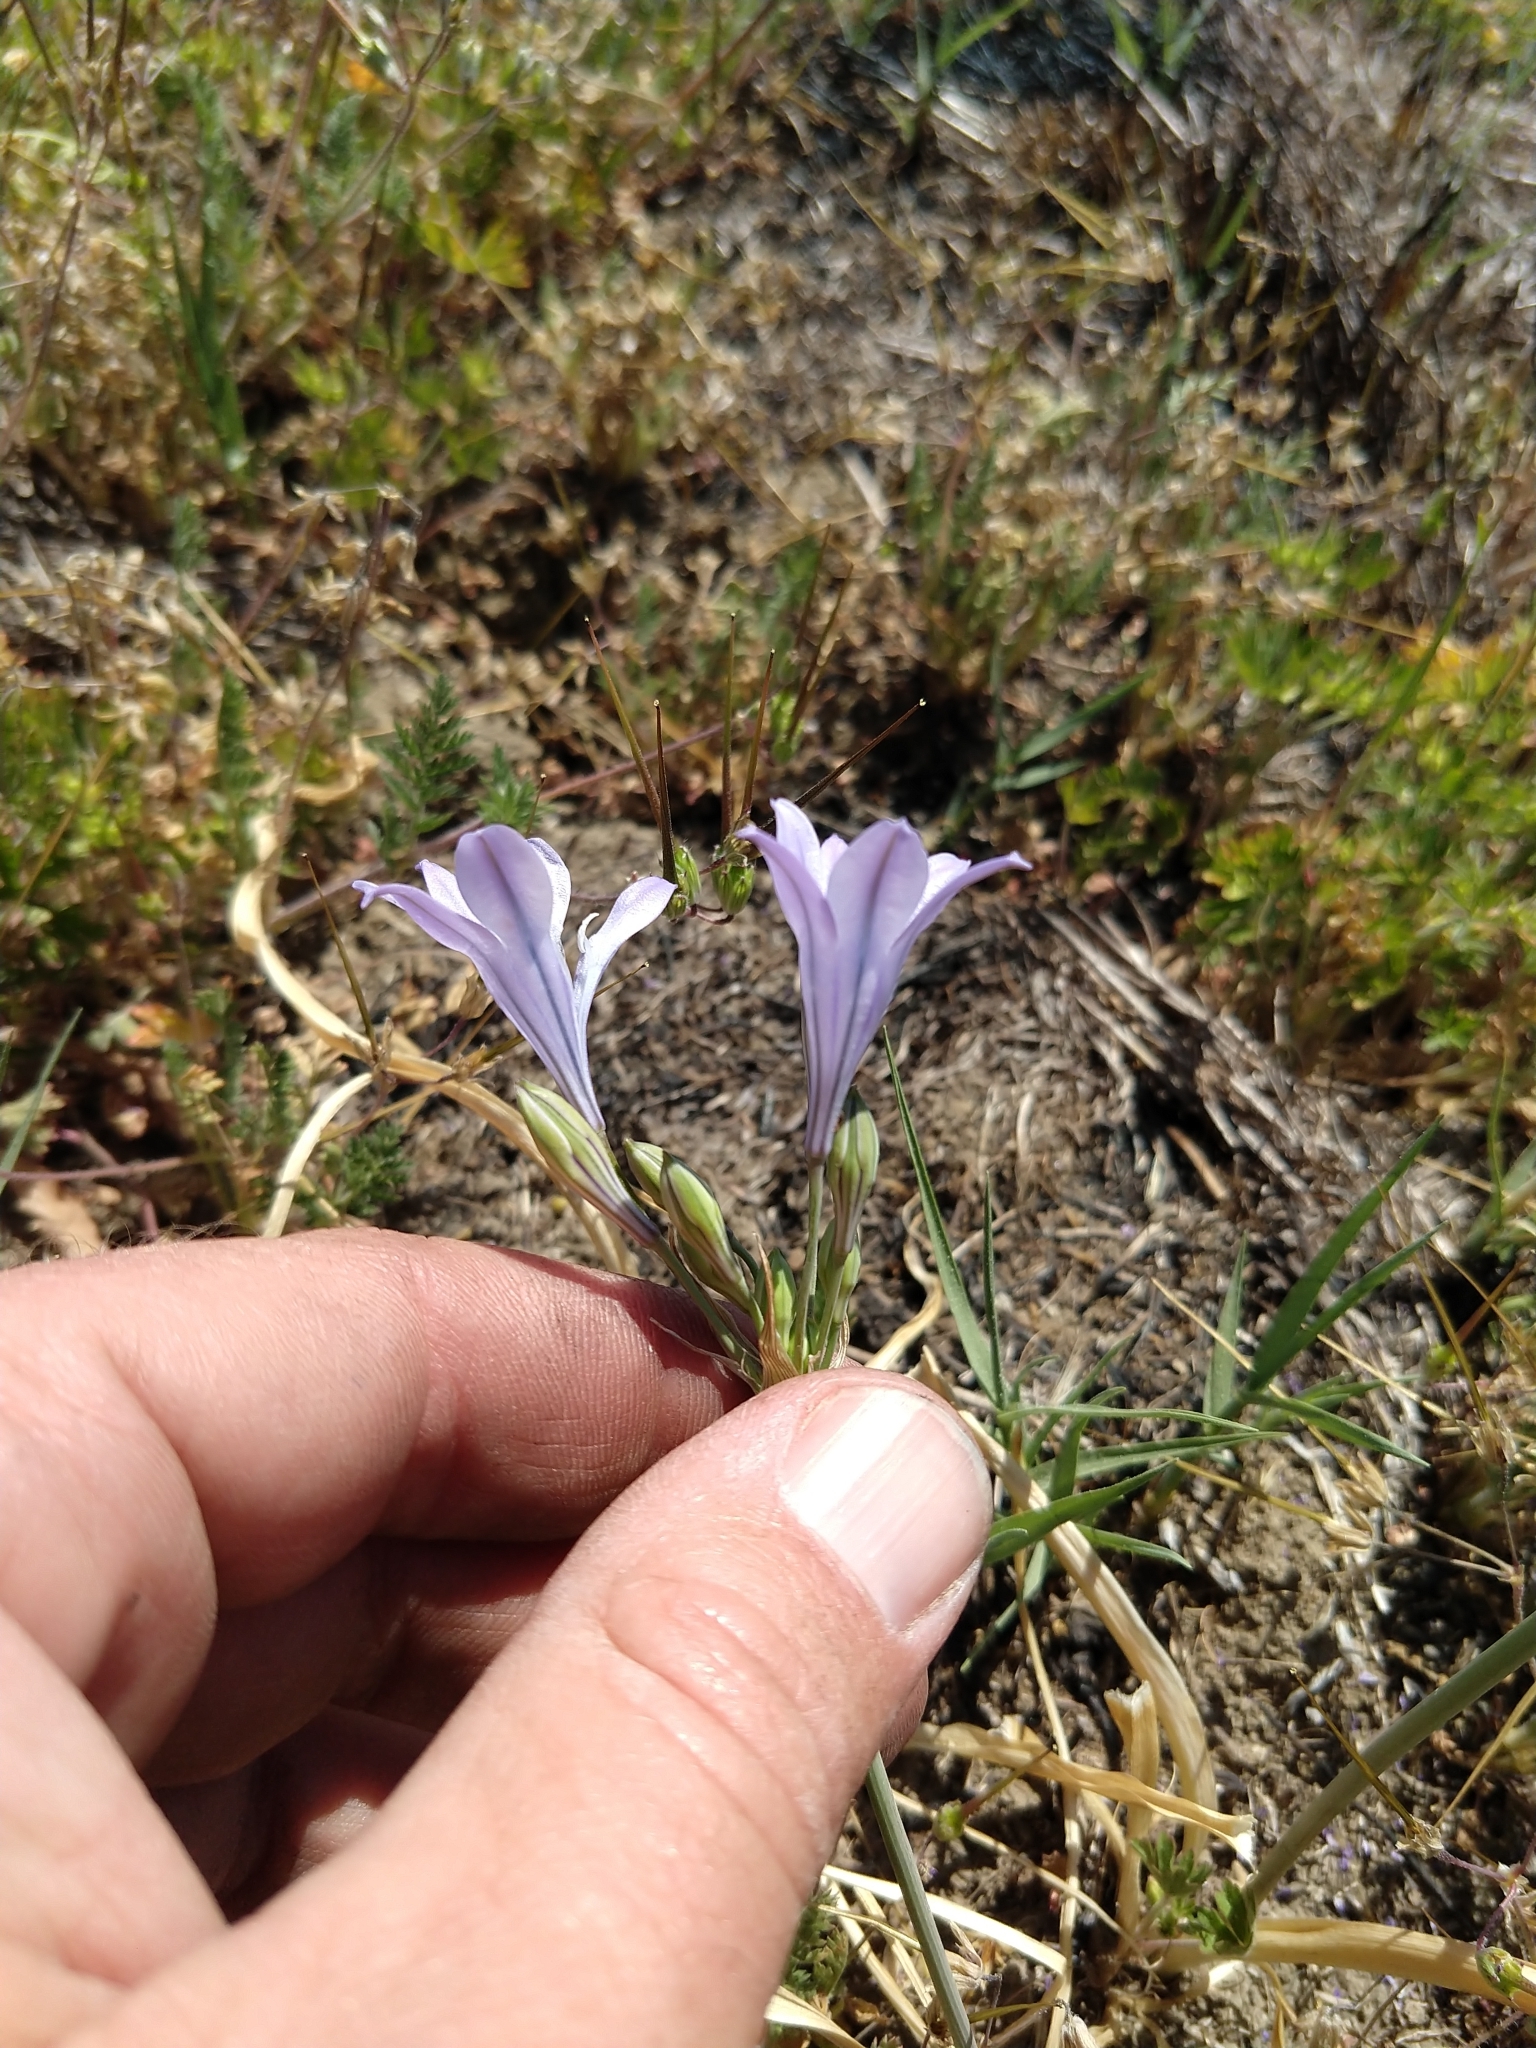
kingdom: Plantae
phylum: Tracheophyta
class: Liliopsida
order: Asparagales
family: Asparagaceae
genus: Triteleia
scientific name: Triteleia laxa
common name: Triplet-lily
